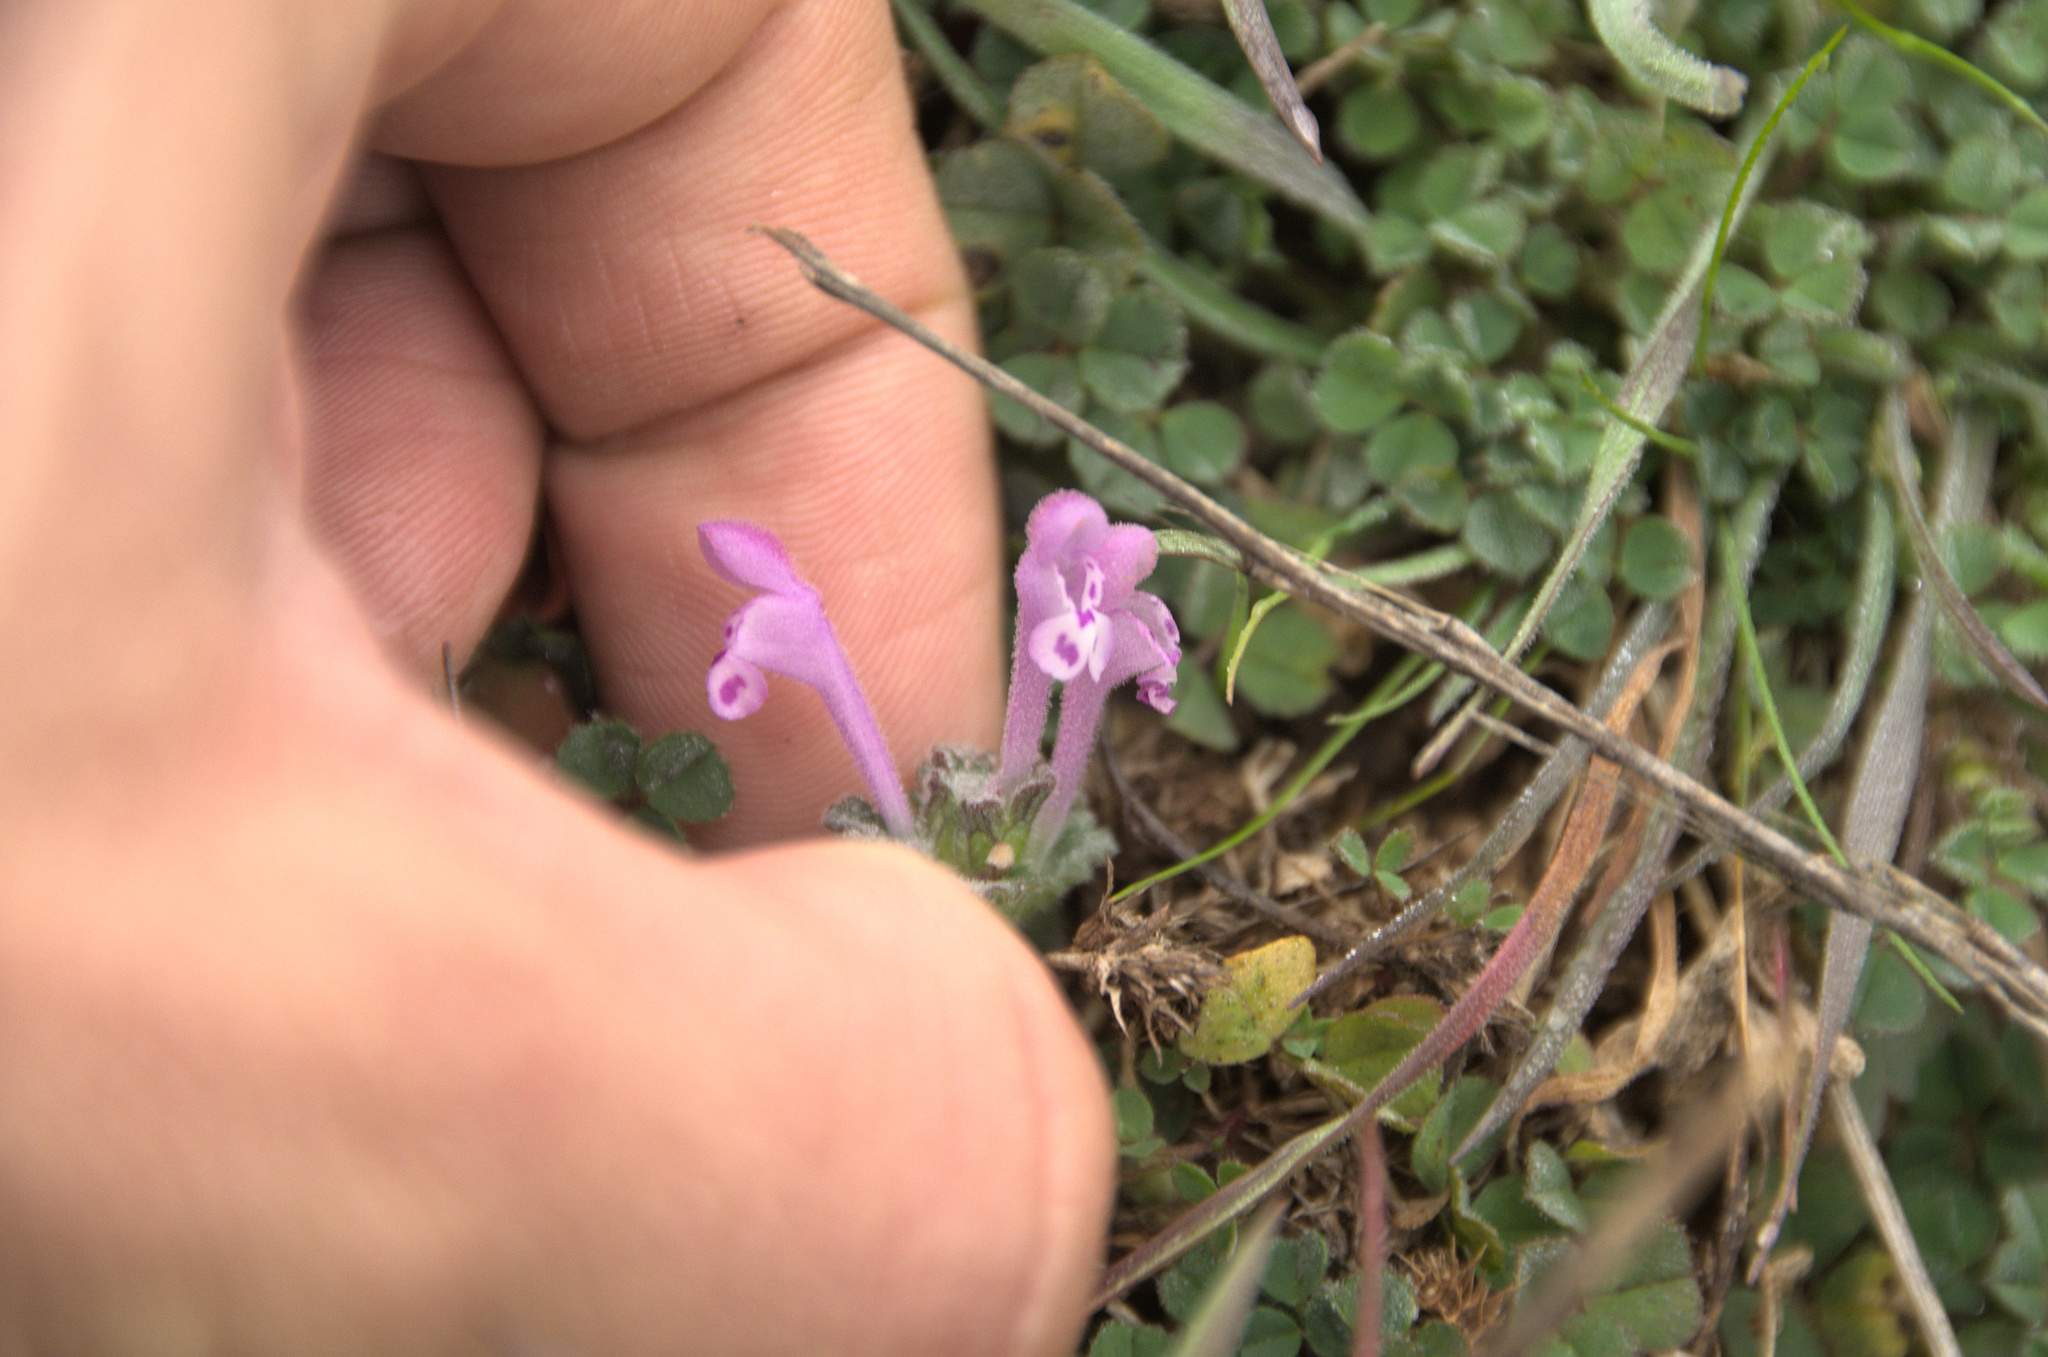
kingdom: Plantae
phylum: Tracheophyta
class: Magnoliopsida
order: Lamiales
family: Lamiaceae
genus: Lamium
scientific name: Lamium amplexicaule
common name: Henbit dead-nettle
